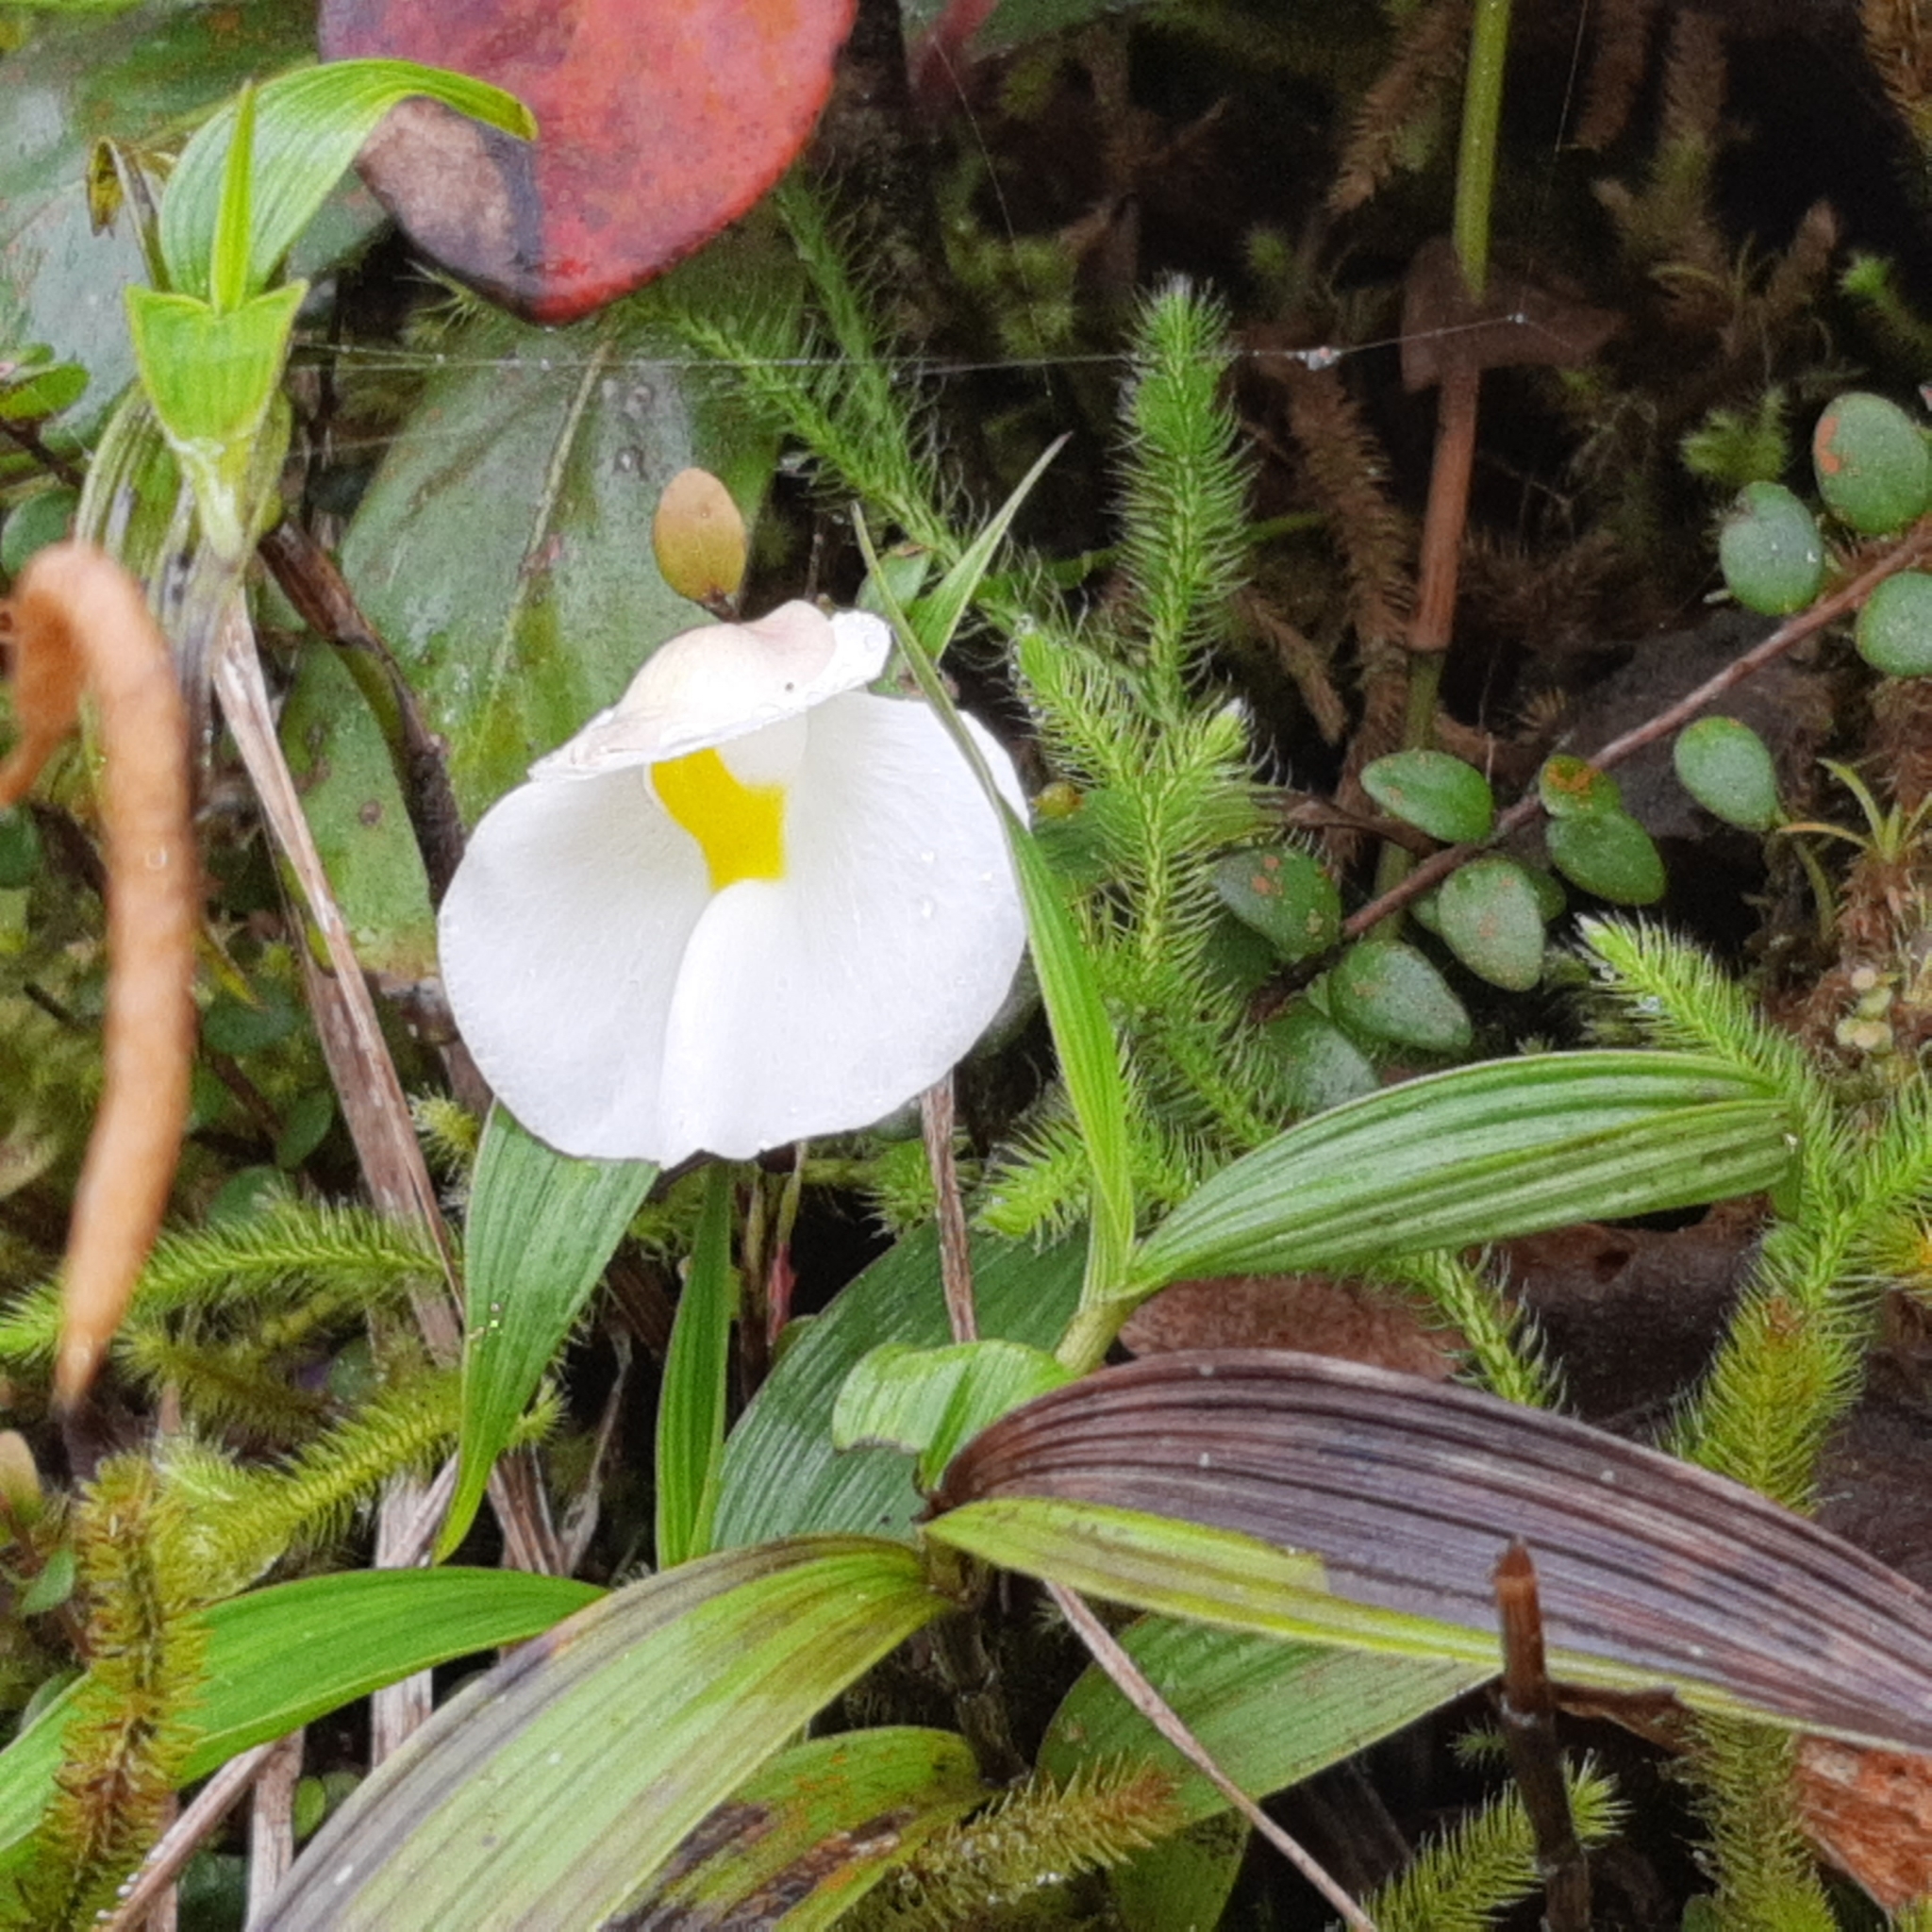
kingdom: Plantae
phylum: Tracheophyta
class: Magnoliopsida
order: Lamiales
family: Lentibulariaceae
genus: Utricularia
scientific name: Utricularia praetermissa
